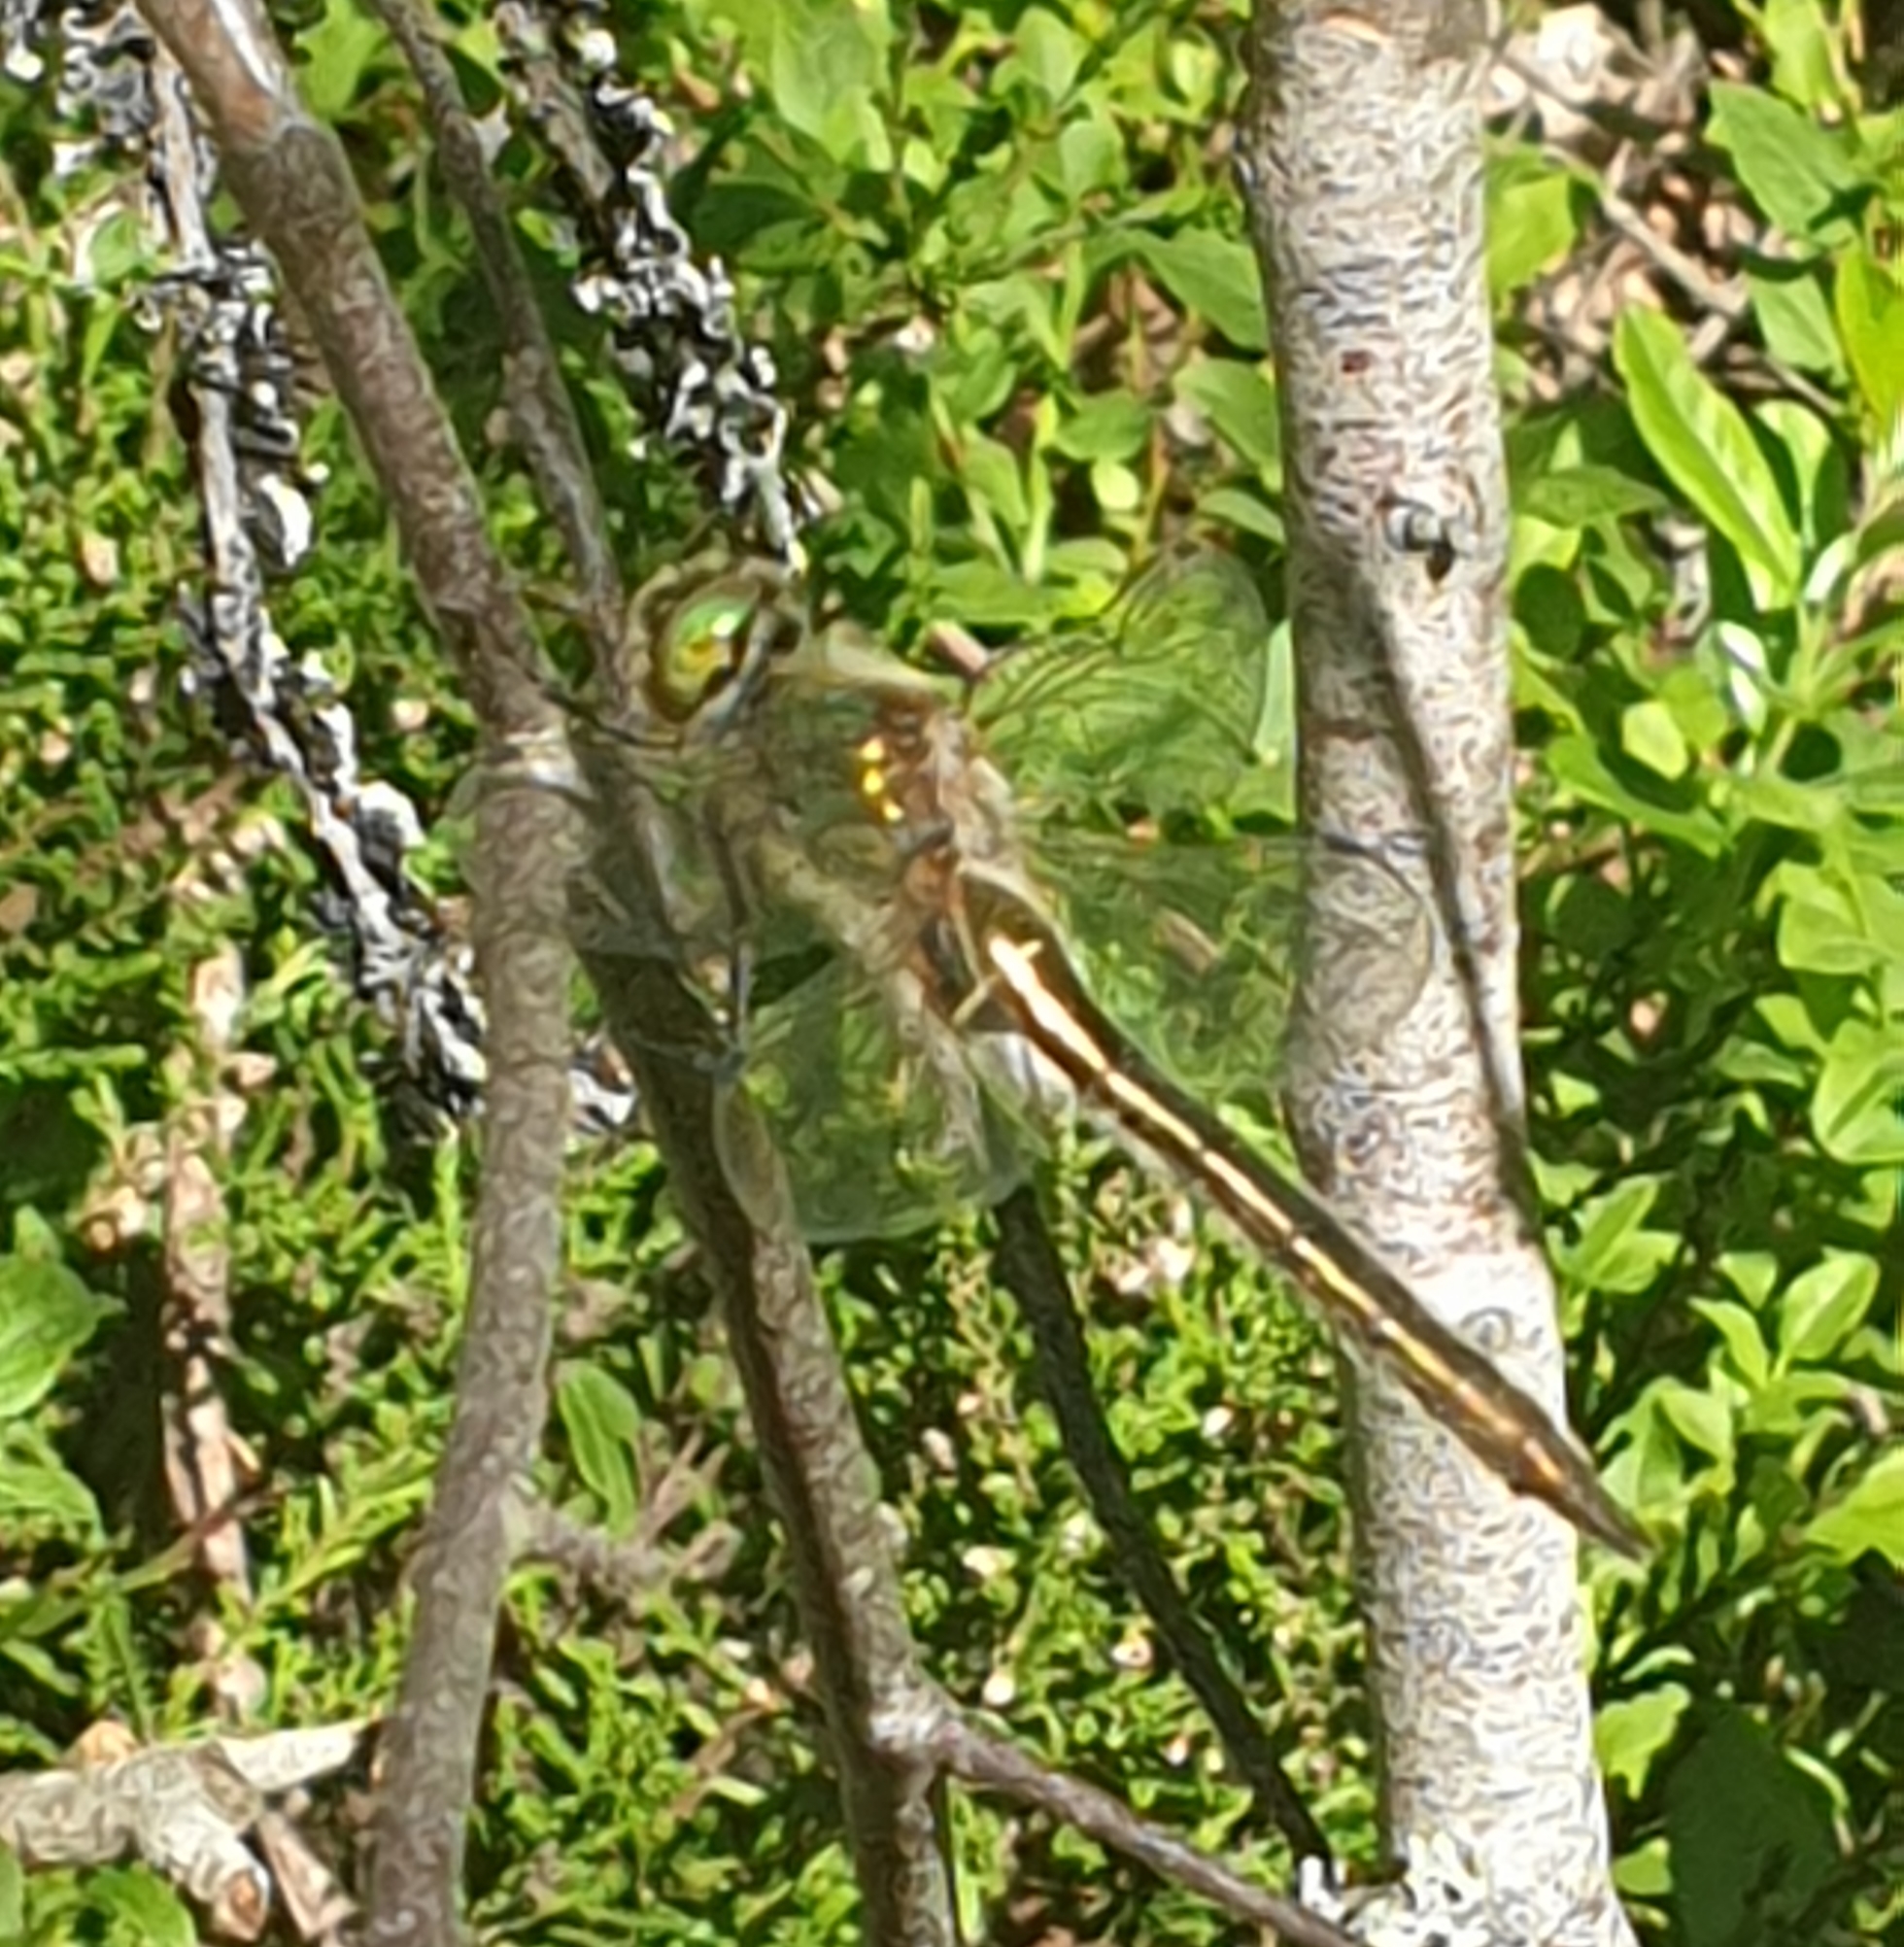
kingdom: Animalia
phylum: Arthropoda
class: Insecta
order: Odonata
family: Corduliidae
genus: Cordulia
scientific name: Cordulia aenea
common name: Downy emerald
